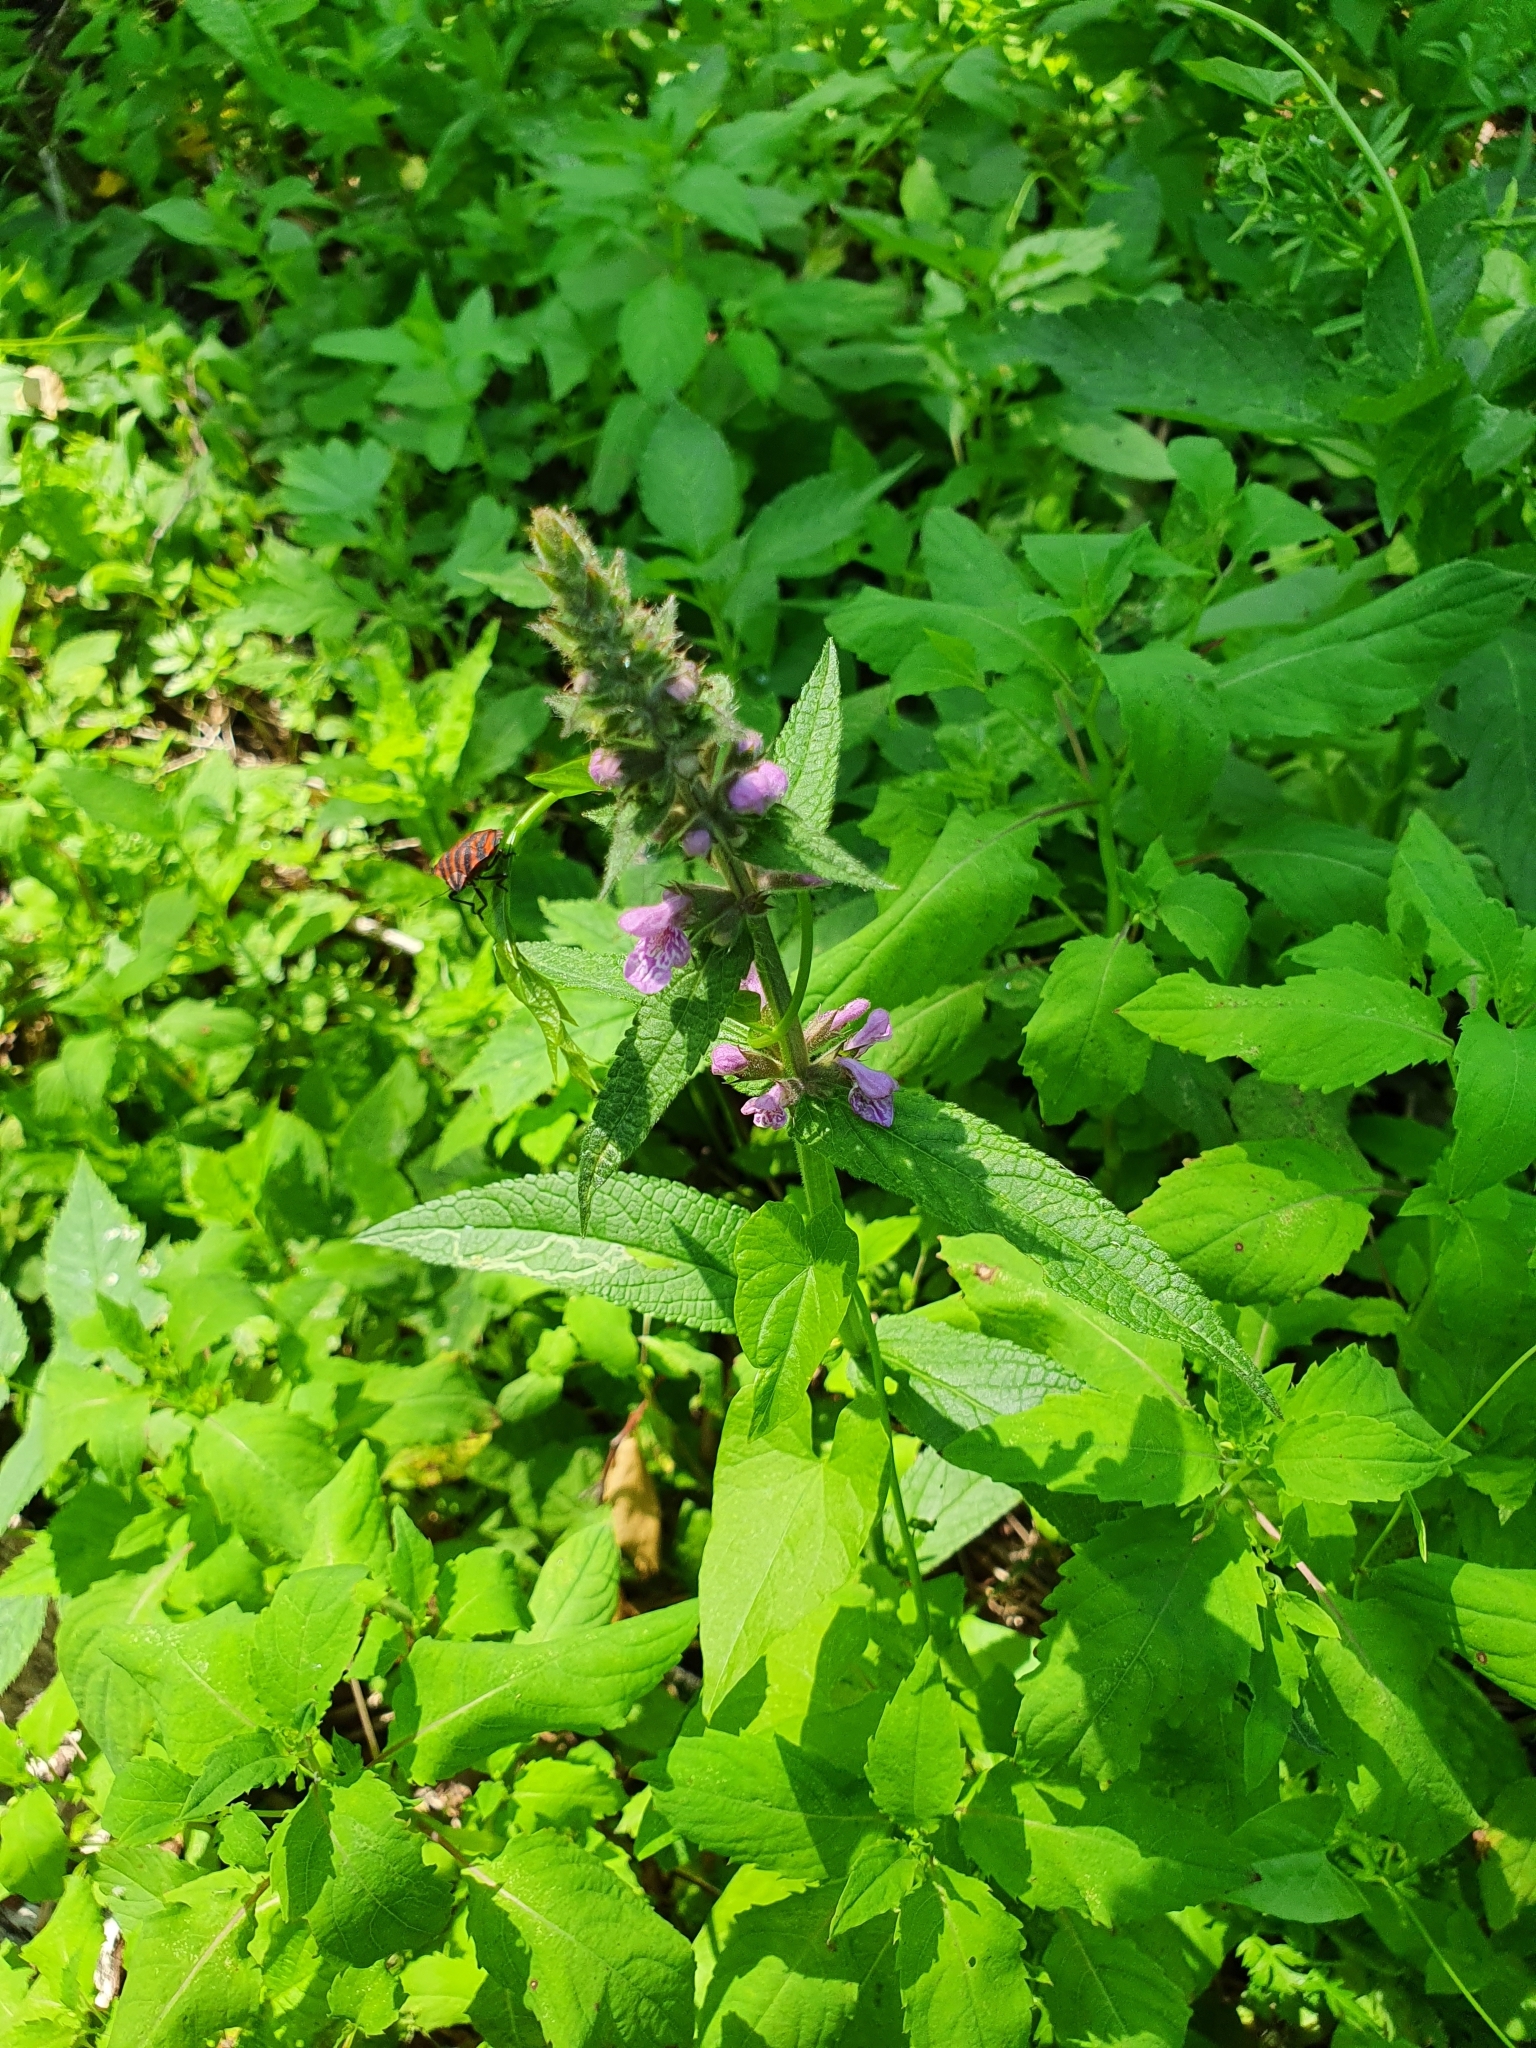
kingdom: Plantae
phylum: Tracheophyta
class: Magnoliopsida
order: Lamiales
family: Lamiaceae
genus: Stachys
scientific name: Stachys palustris
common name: Marsh woundwort
